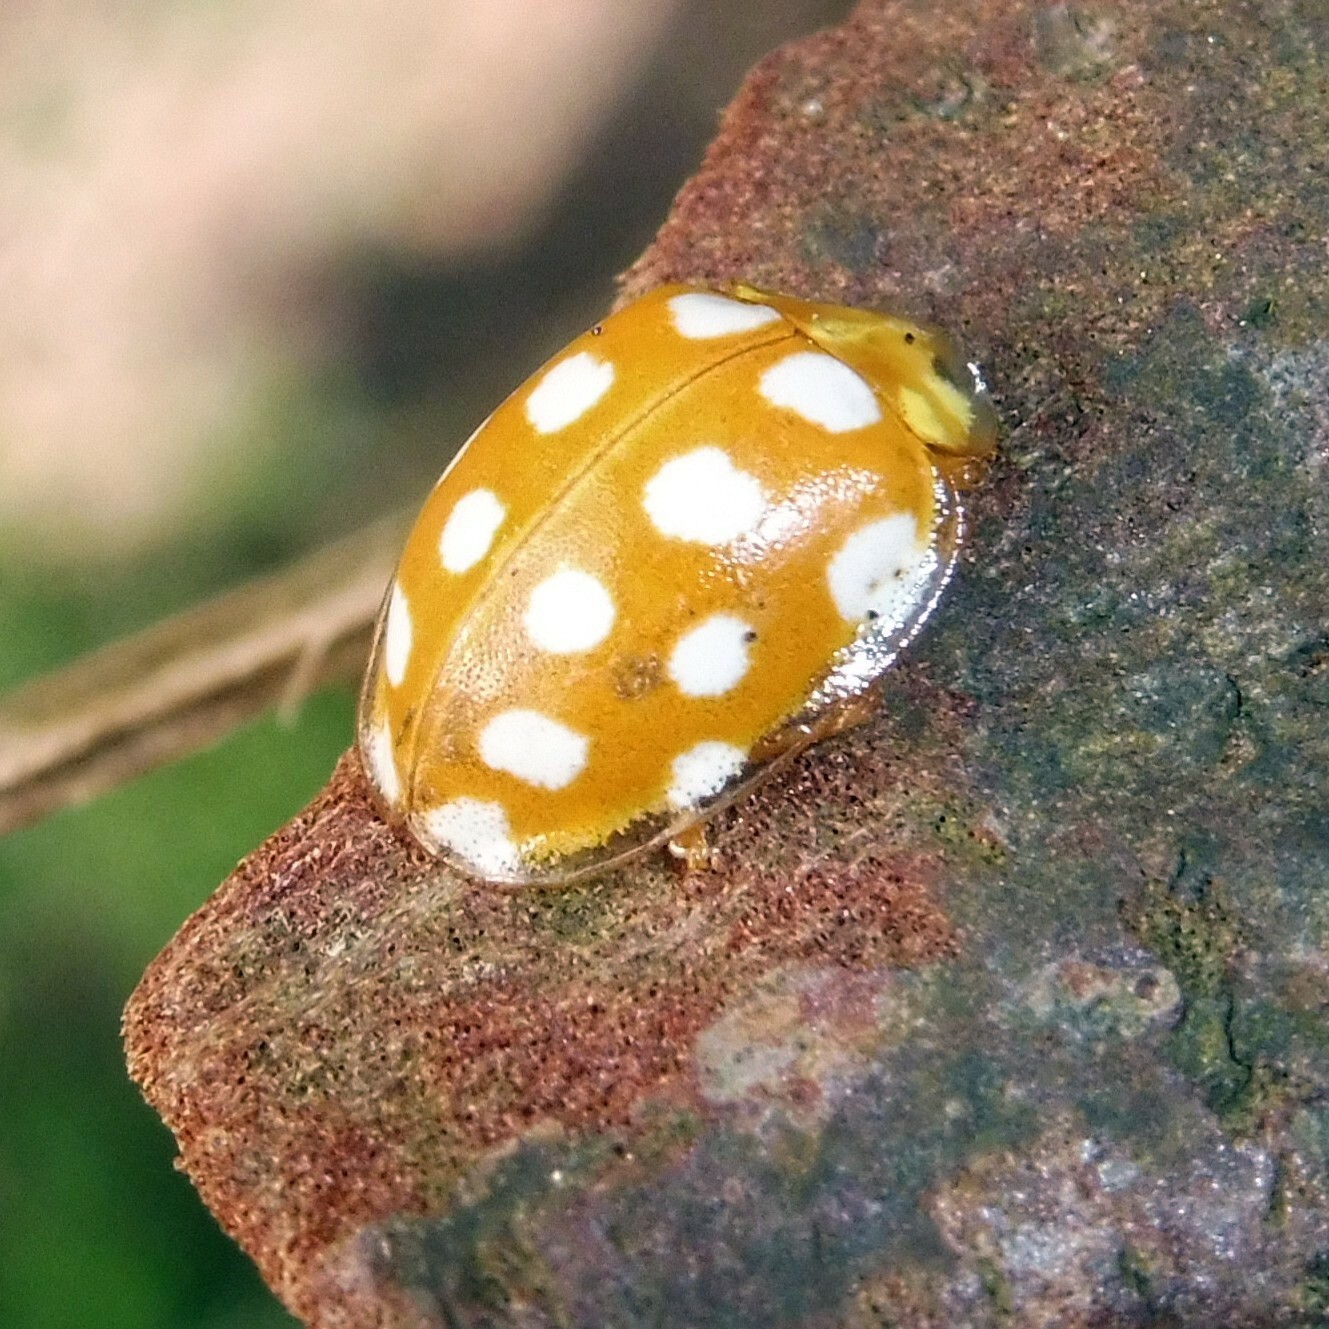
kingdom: Animalia
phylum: Arthropoda
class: Insecta
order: Coleoptera
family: Coccinellidae
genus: Halyzia
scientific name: Halyzia sedecimguttata
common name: Orange ladybird
